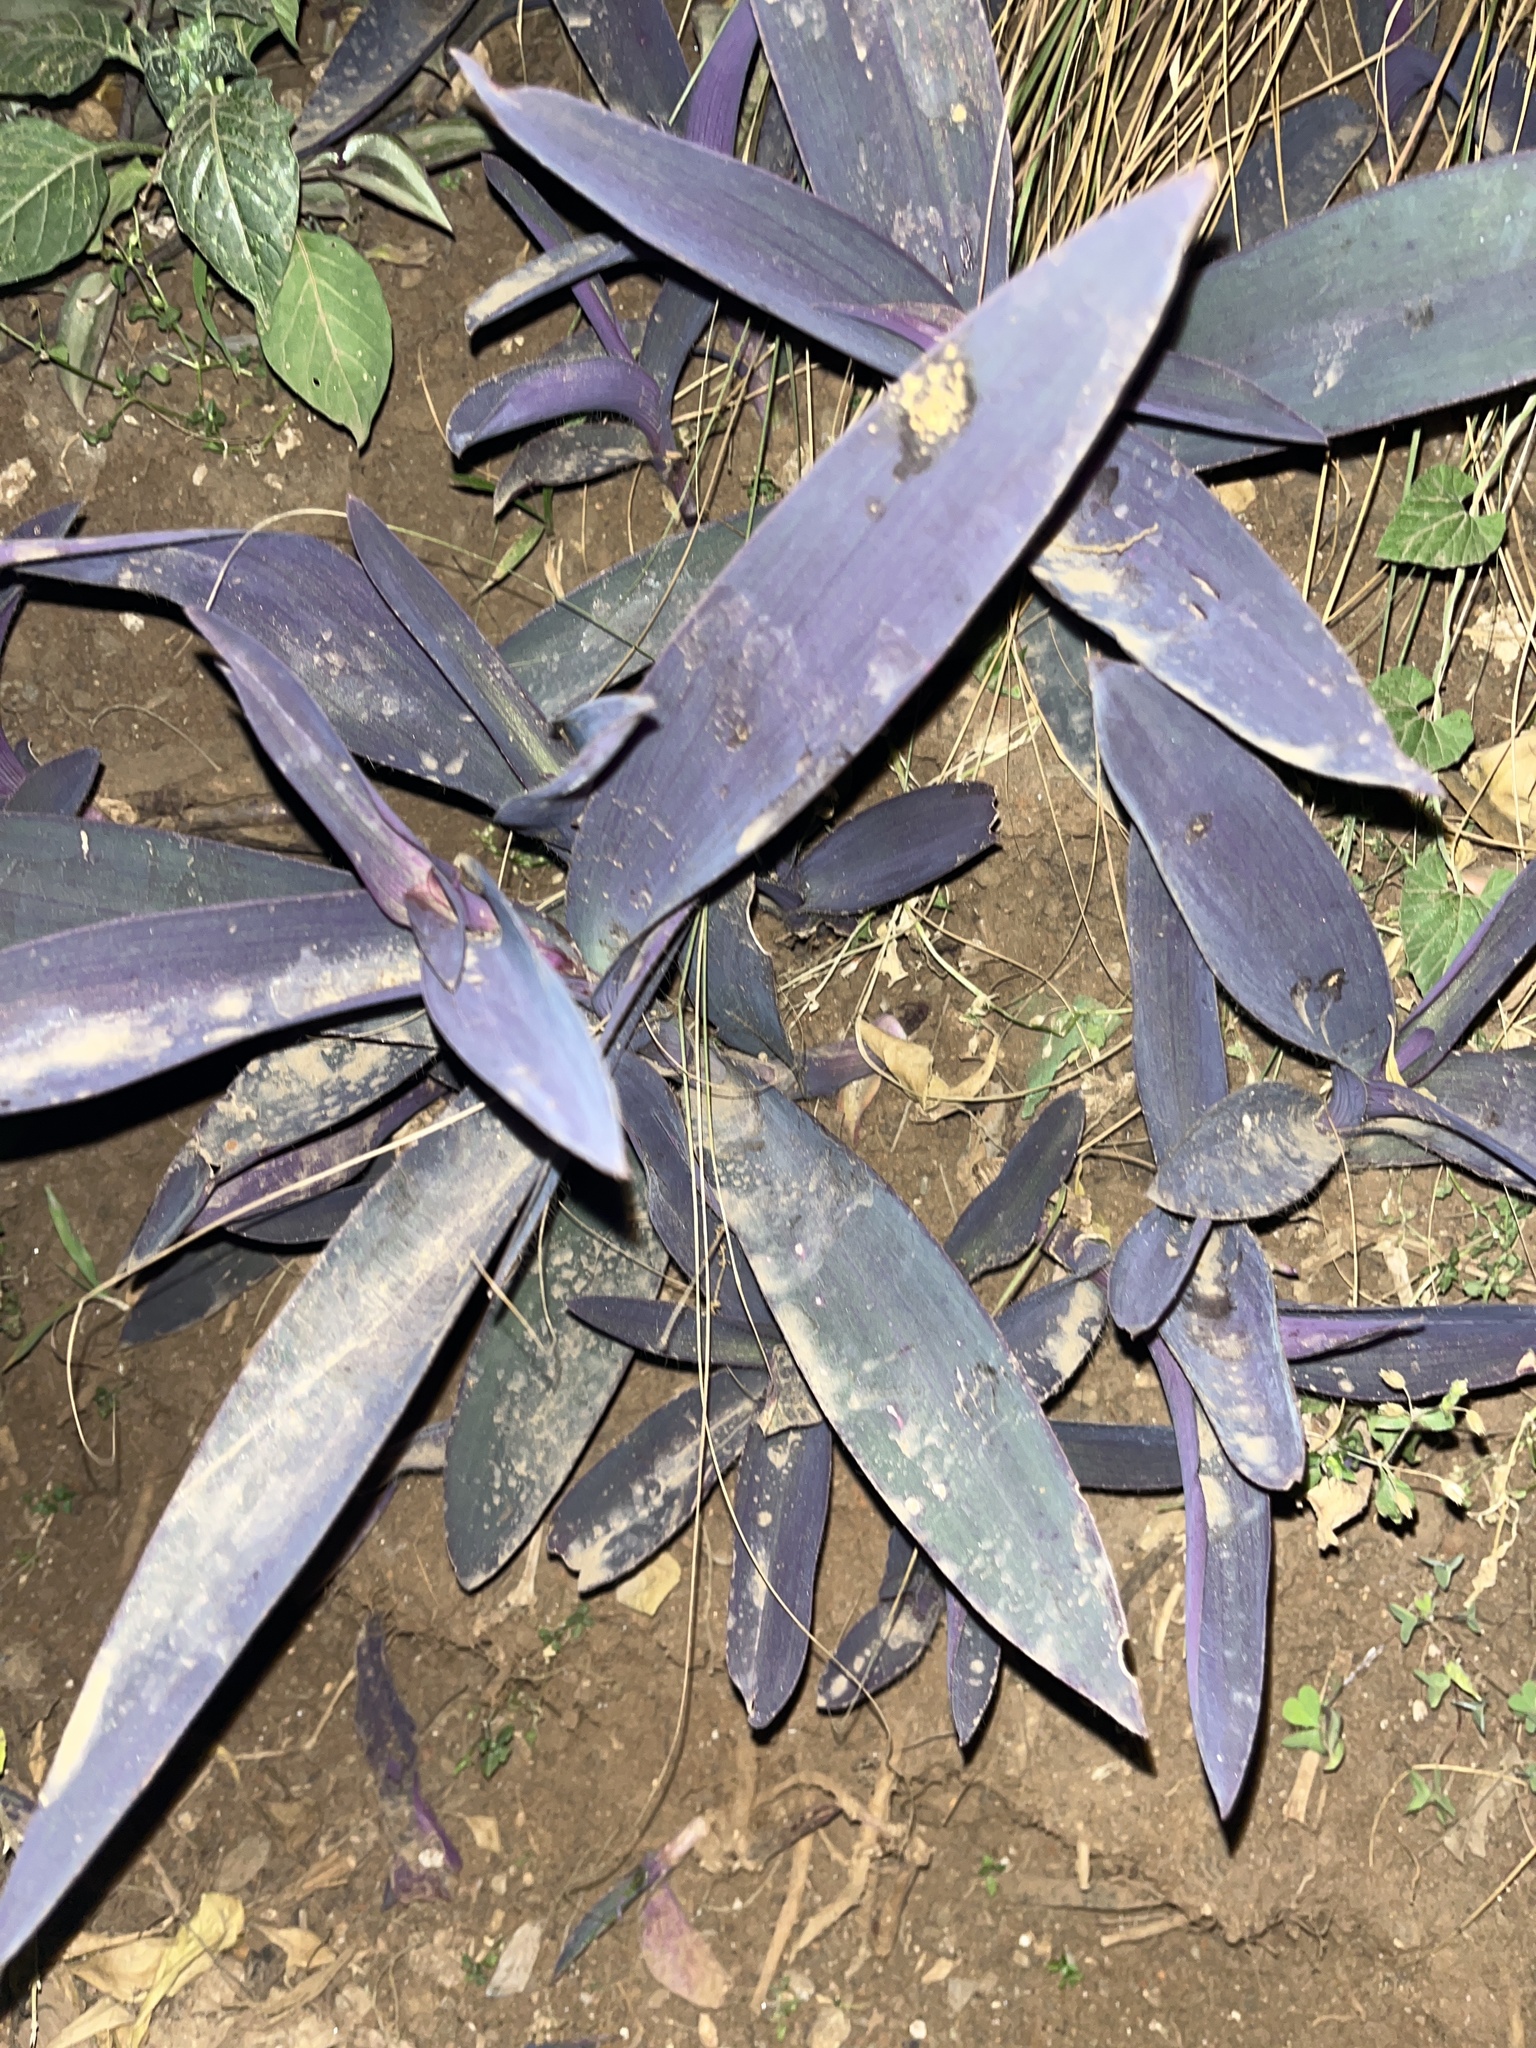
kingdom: Plantae
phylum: Tracheophyta
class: Liliopsida
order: Commelinales
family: Commelinaceae
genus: Tradescantia
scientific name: Tradescantia pallida
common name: Purpleheart
